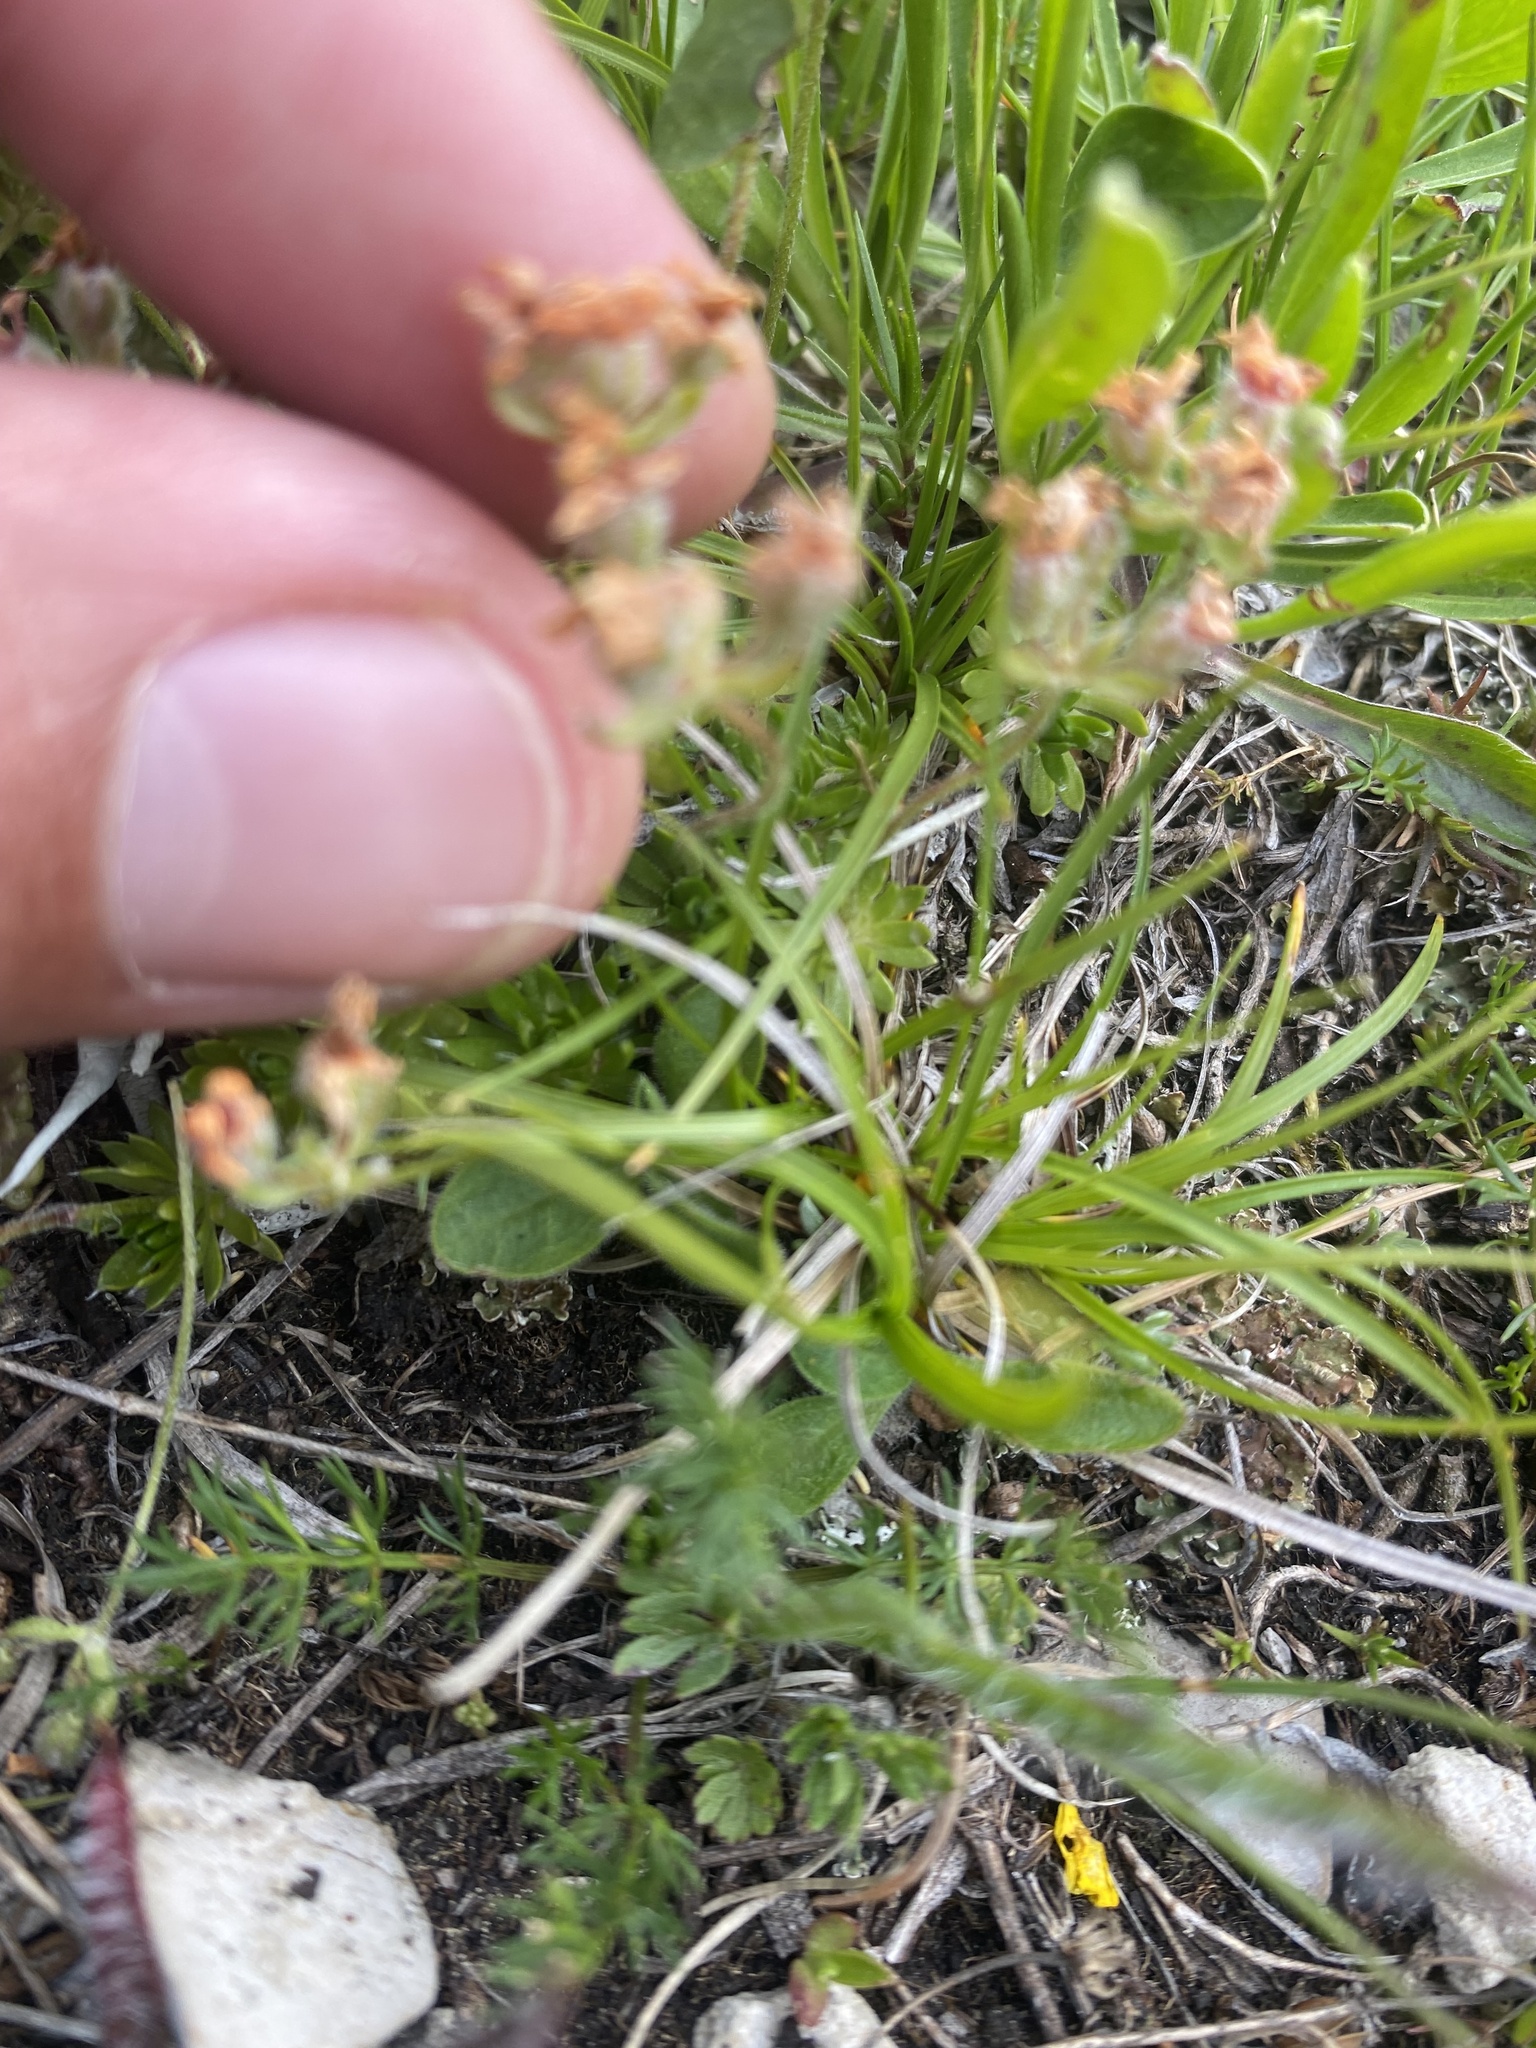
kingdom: Plantae
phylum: Tracheophyta
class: Magnoliopsida
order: Ericales
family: Primulaceae
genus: Androsace
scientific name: Androsace villosa
